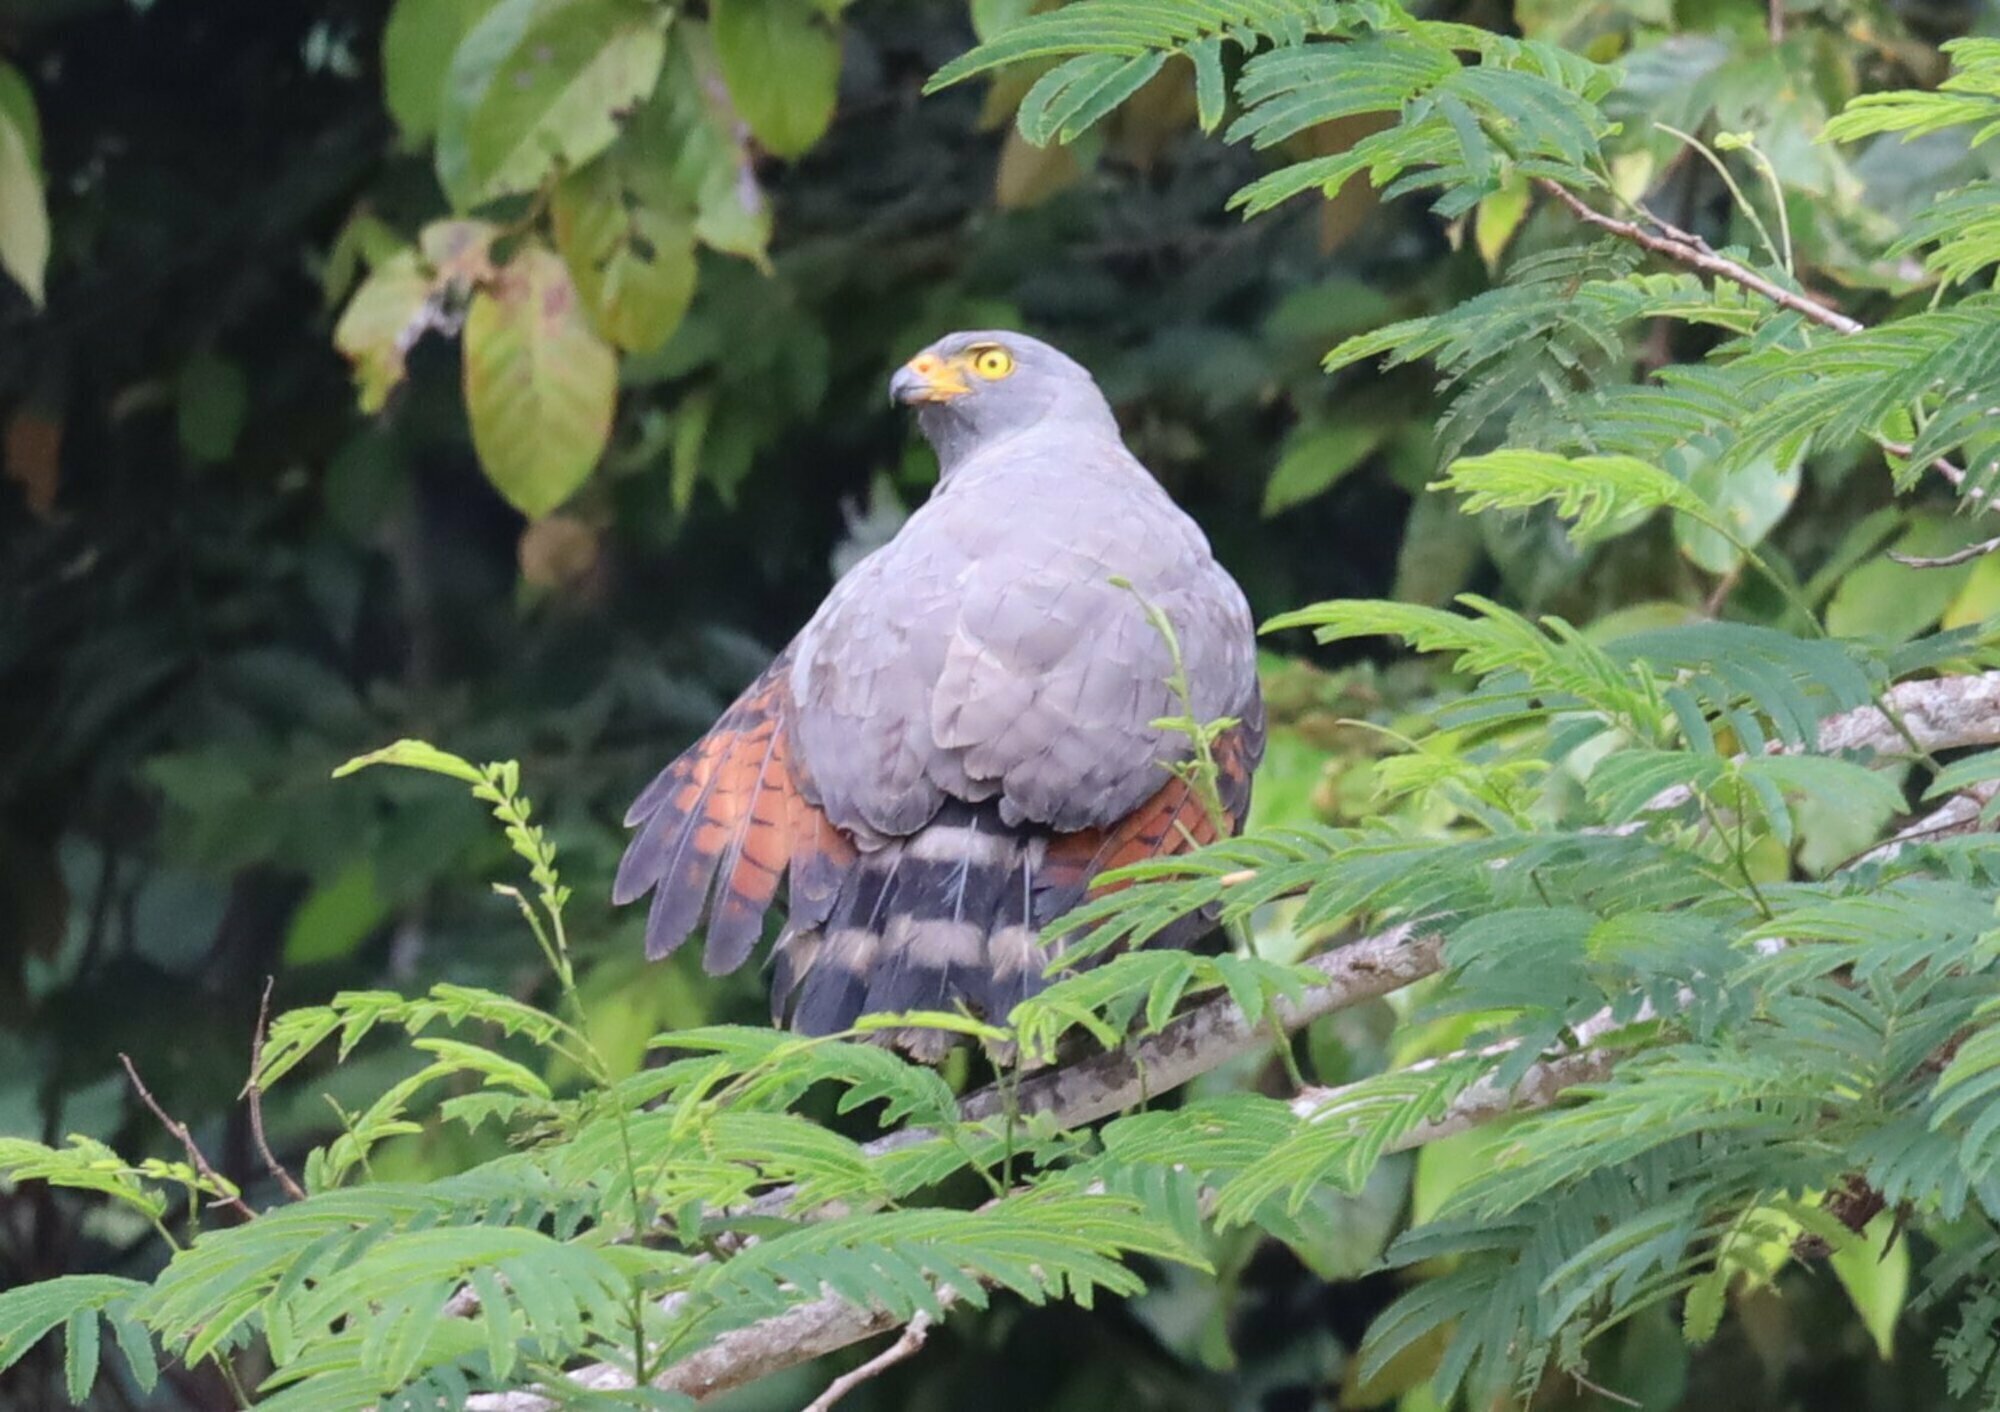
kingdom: Animalia
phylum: Chordata
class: Aves
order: Accipitriformes
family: Accipitridae
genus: Rupornis
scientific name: Rupornis magnirostris
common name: Roadside hawk
